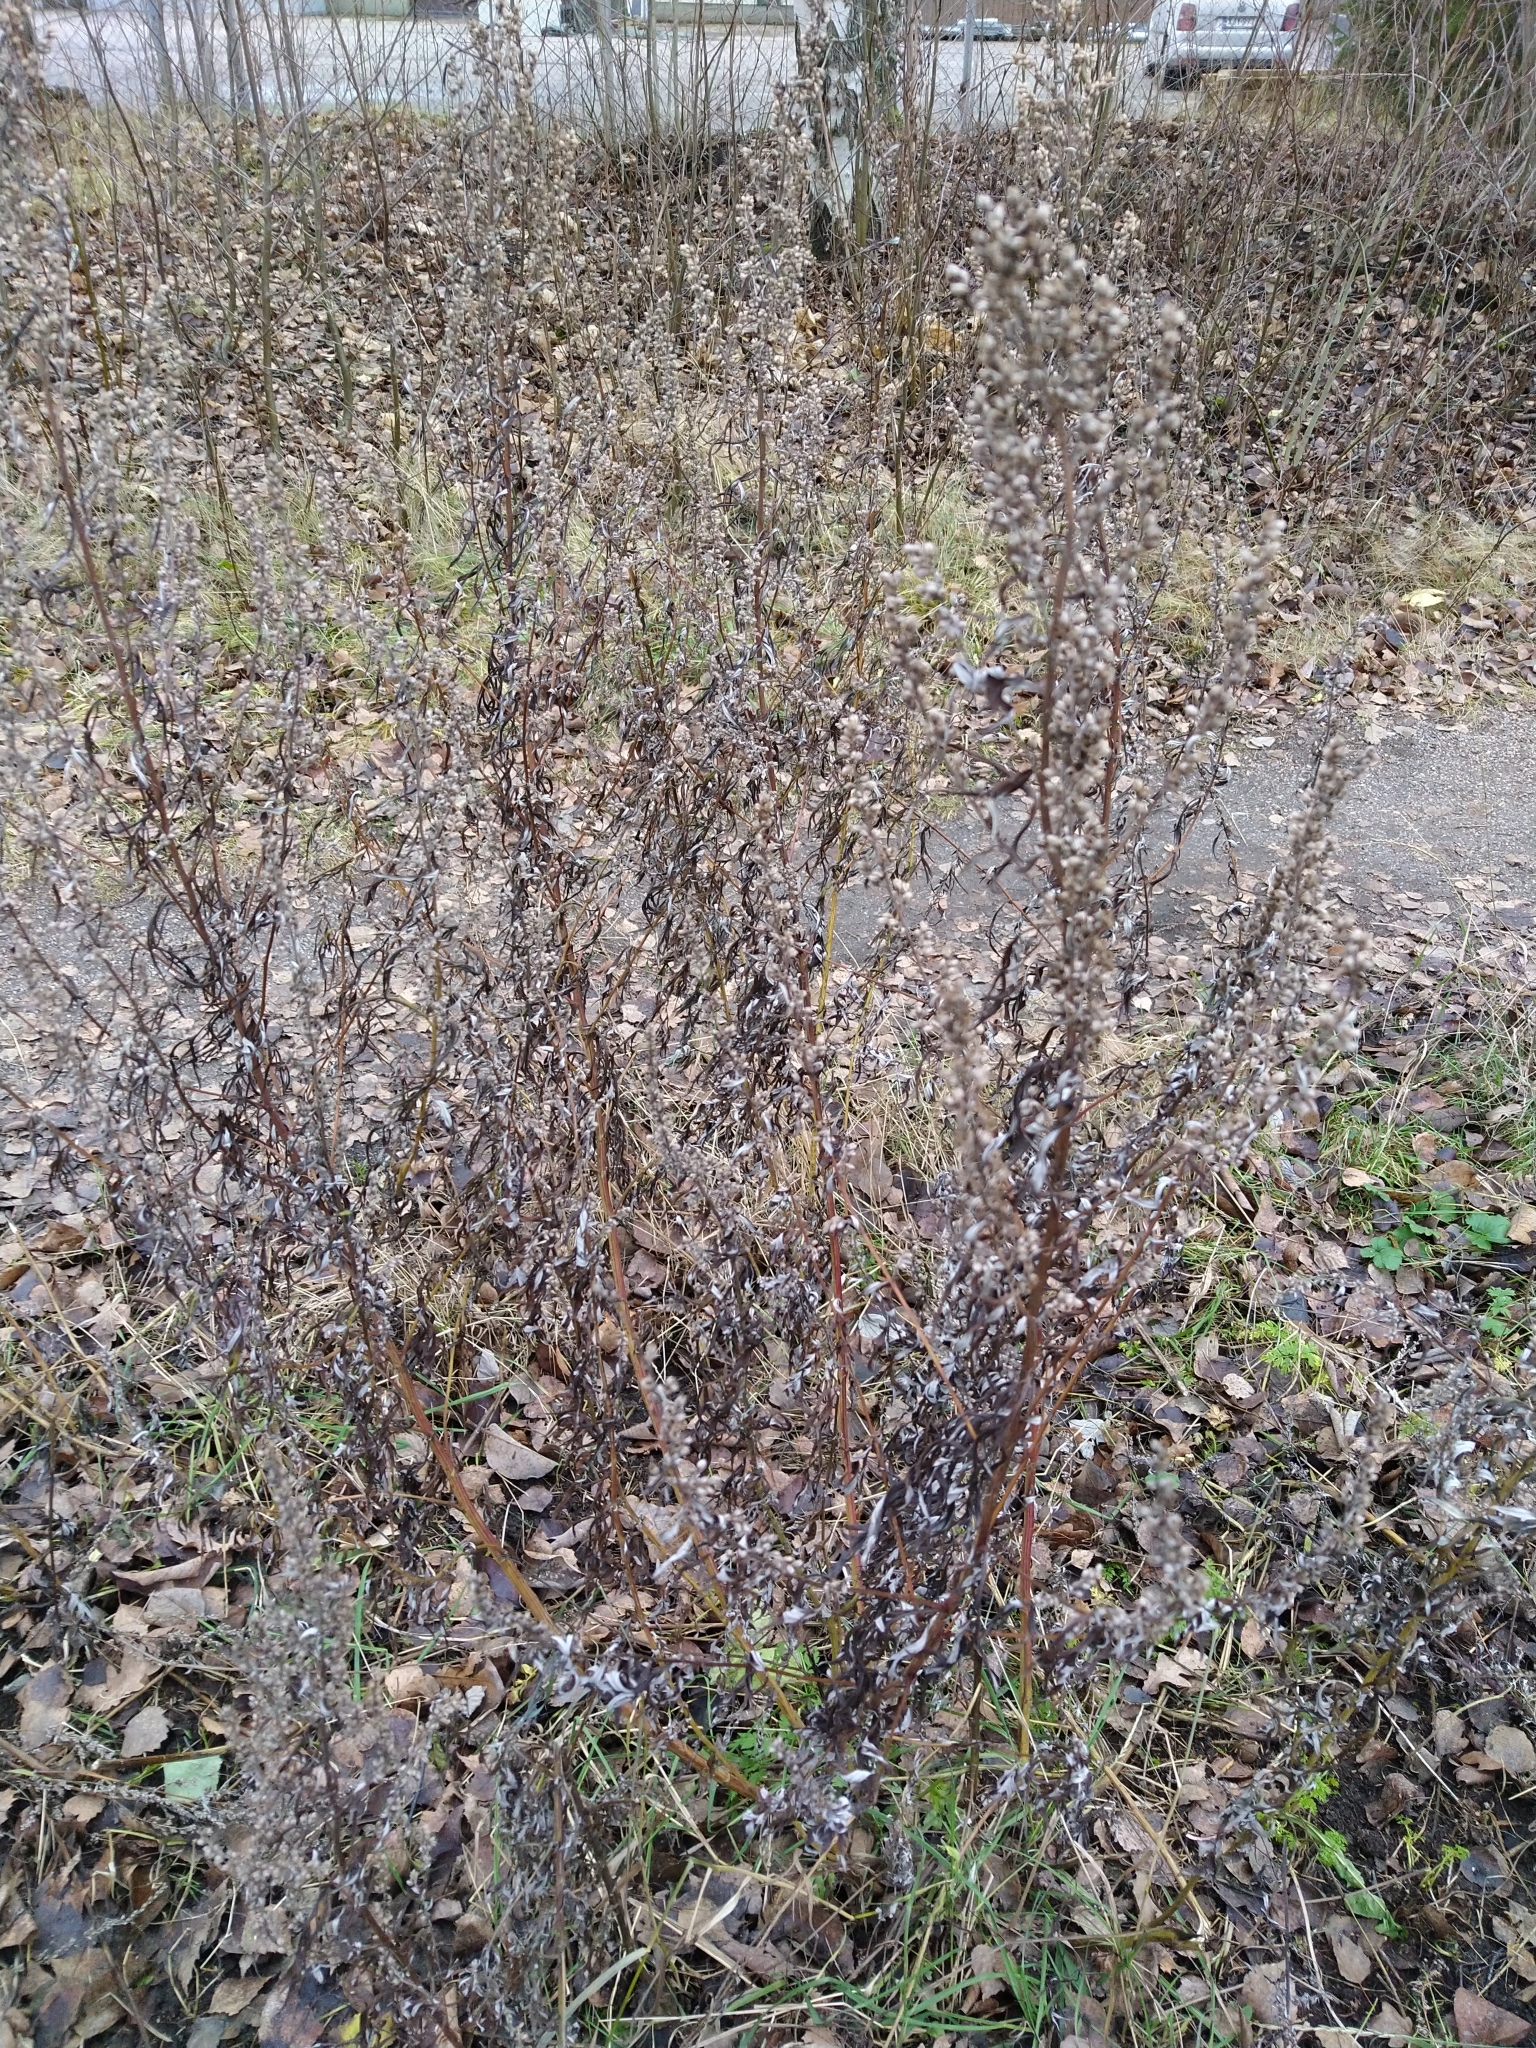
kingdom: Plantae
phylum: Tracheophyta
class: Magnoliopsida
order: Asterales
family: Asteraceae
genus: Artemisia
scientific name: Artemisia vulgaris
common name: Mugwort
